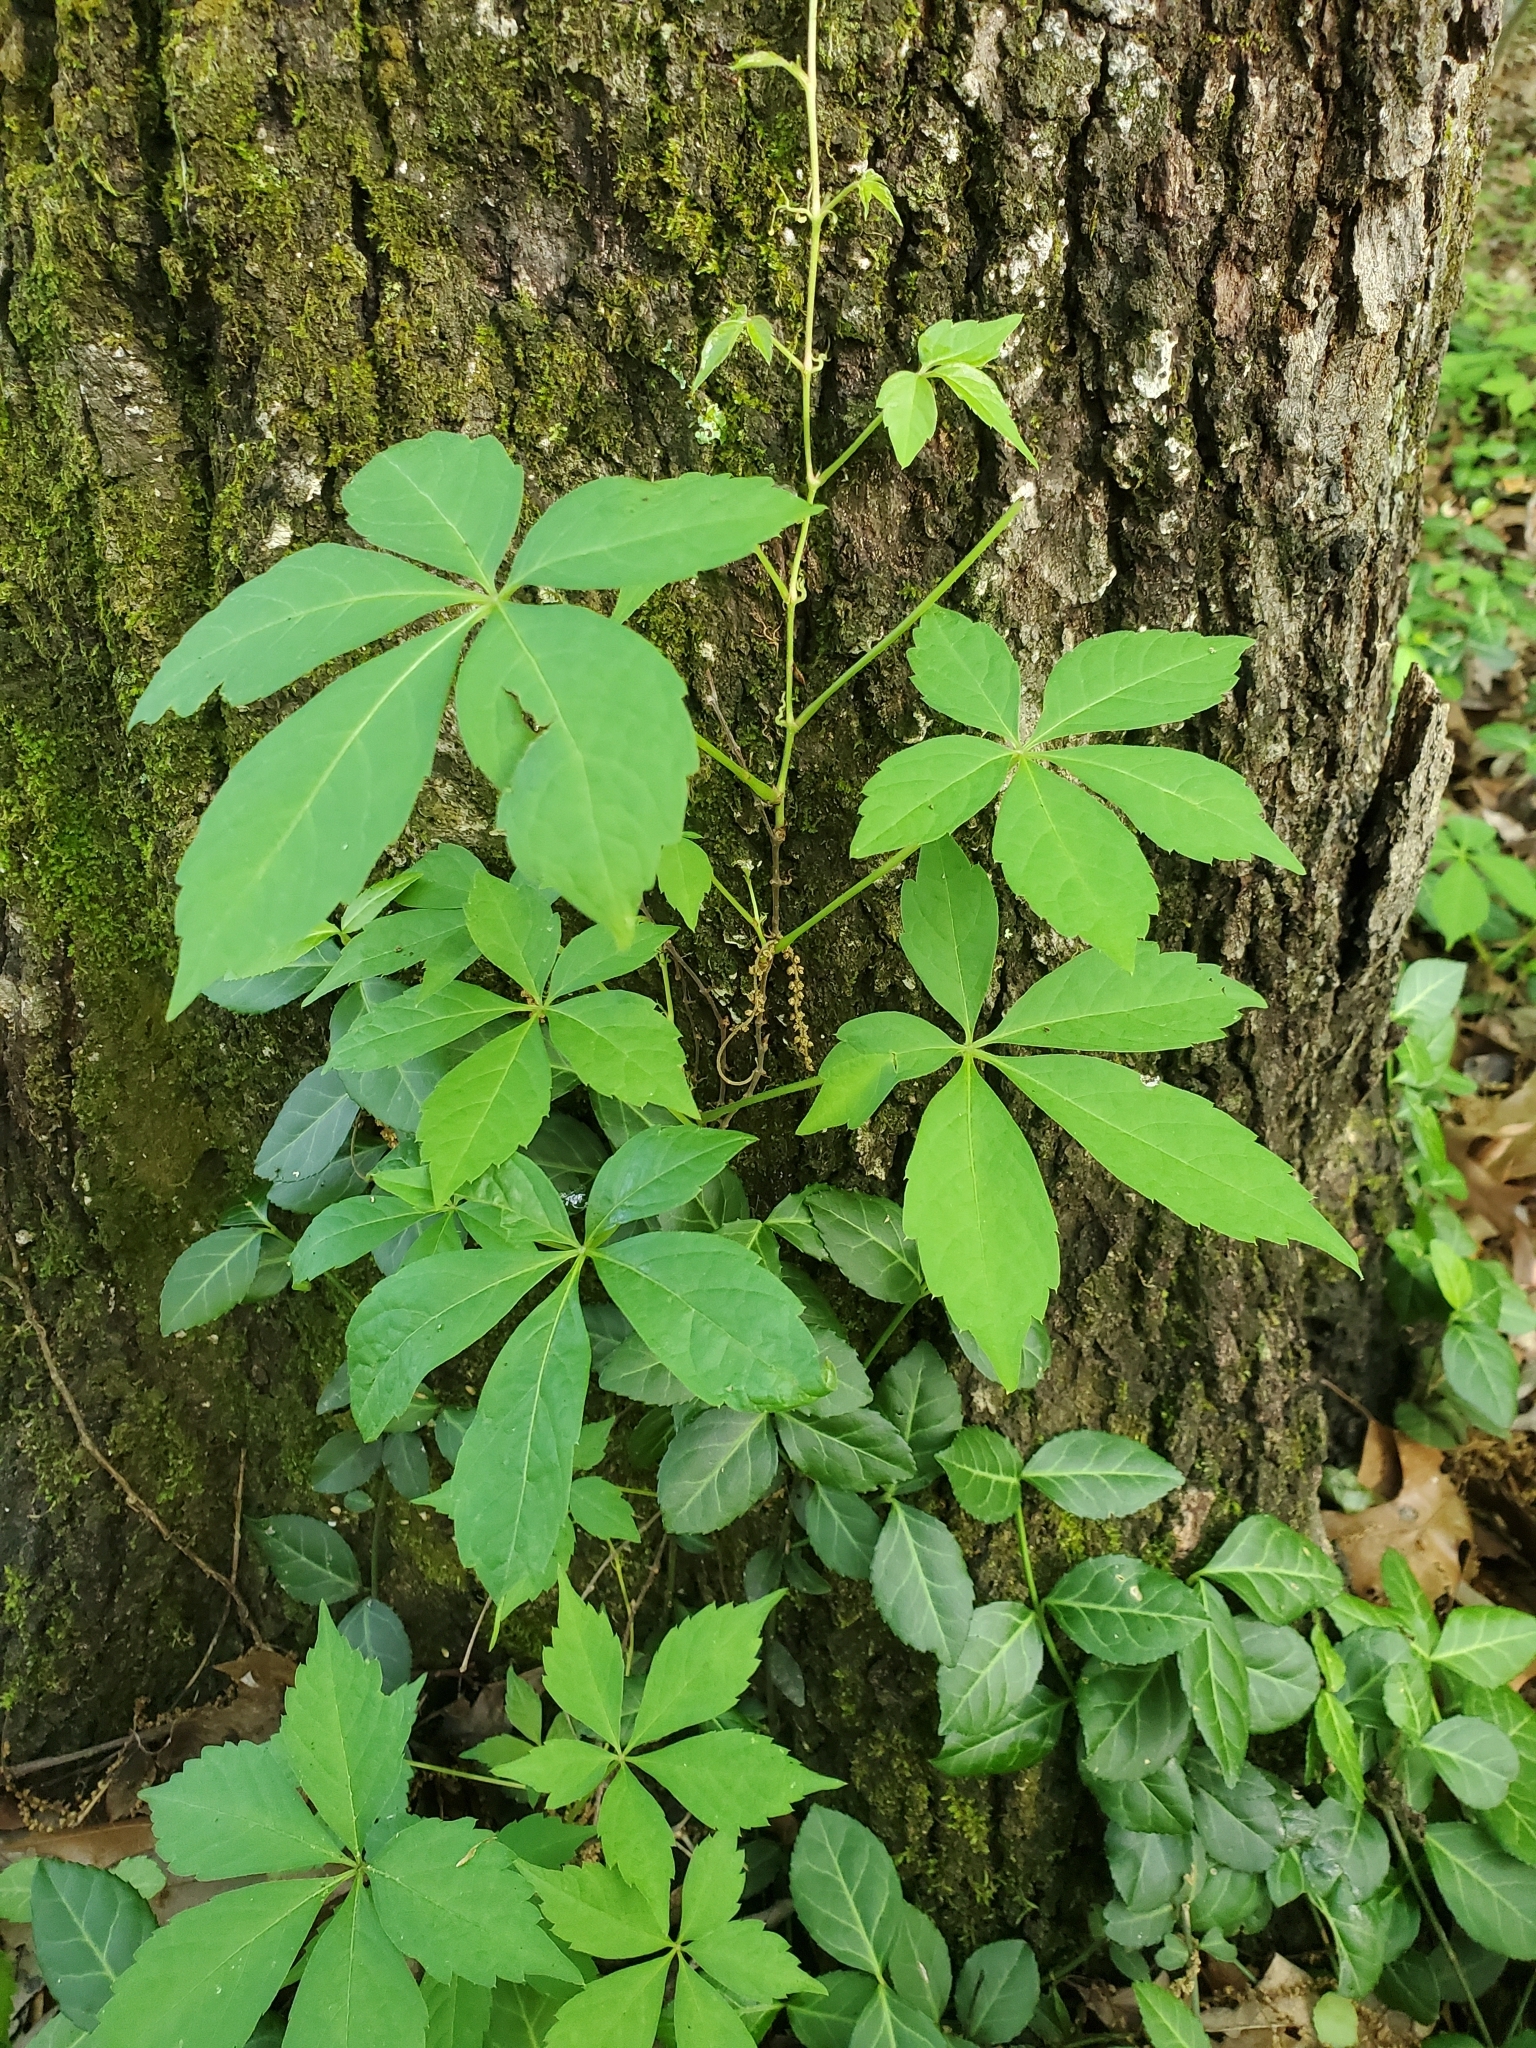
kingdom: Plantae
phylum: Tracheophyta
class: Magnoliopsida
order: Vitales
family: Vitaceae
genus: Parthenocissus
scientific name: Parthenocissus quinquefolia
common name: Virginia-creeper
